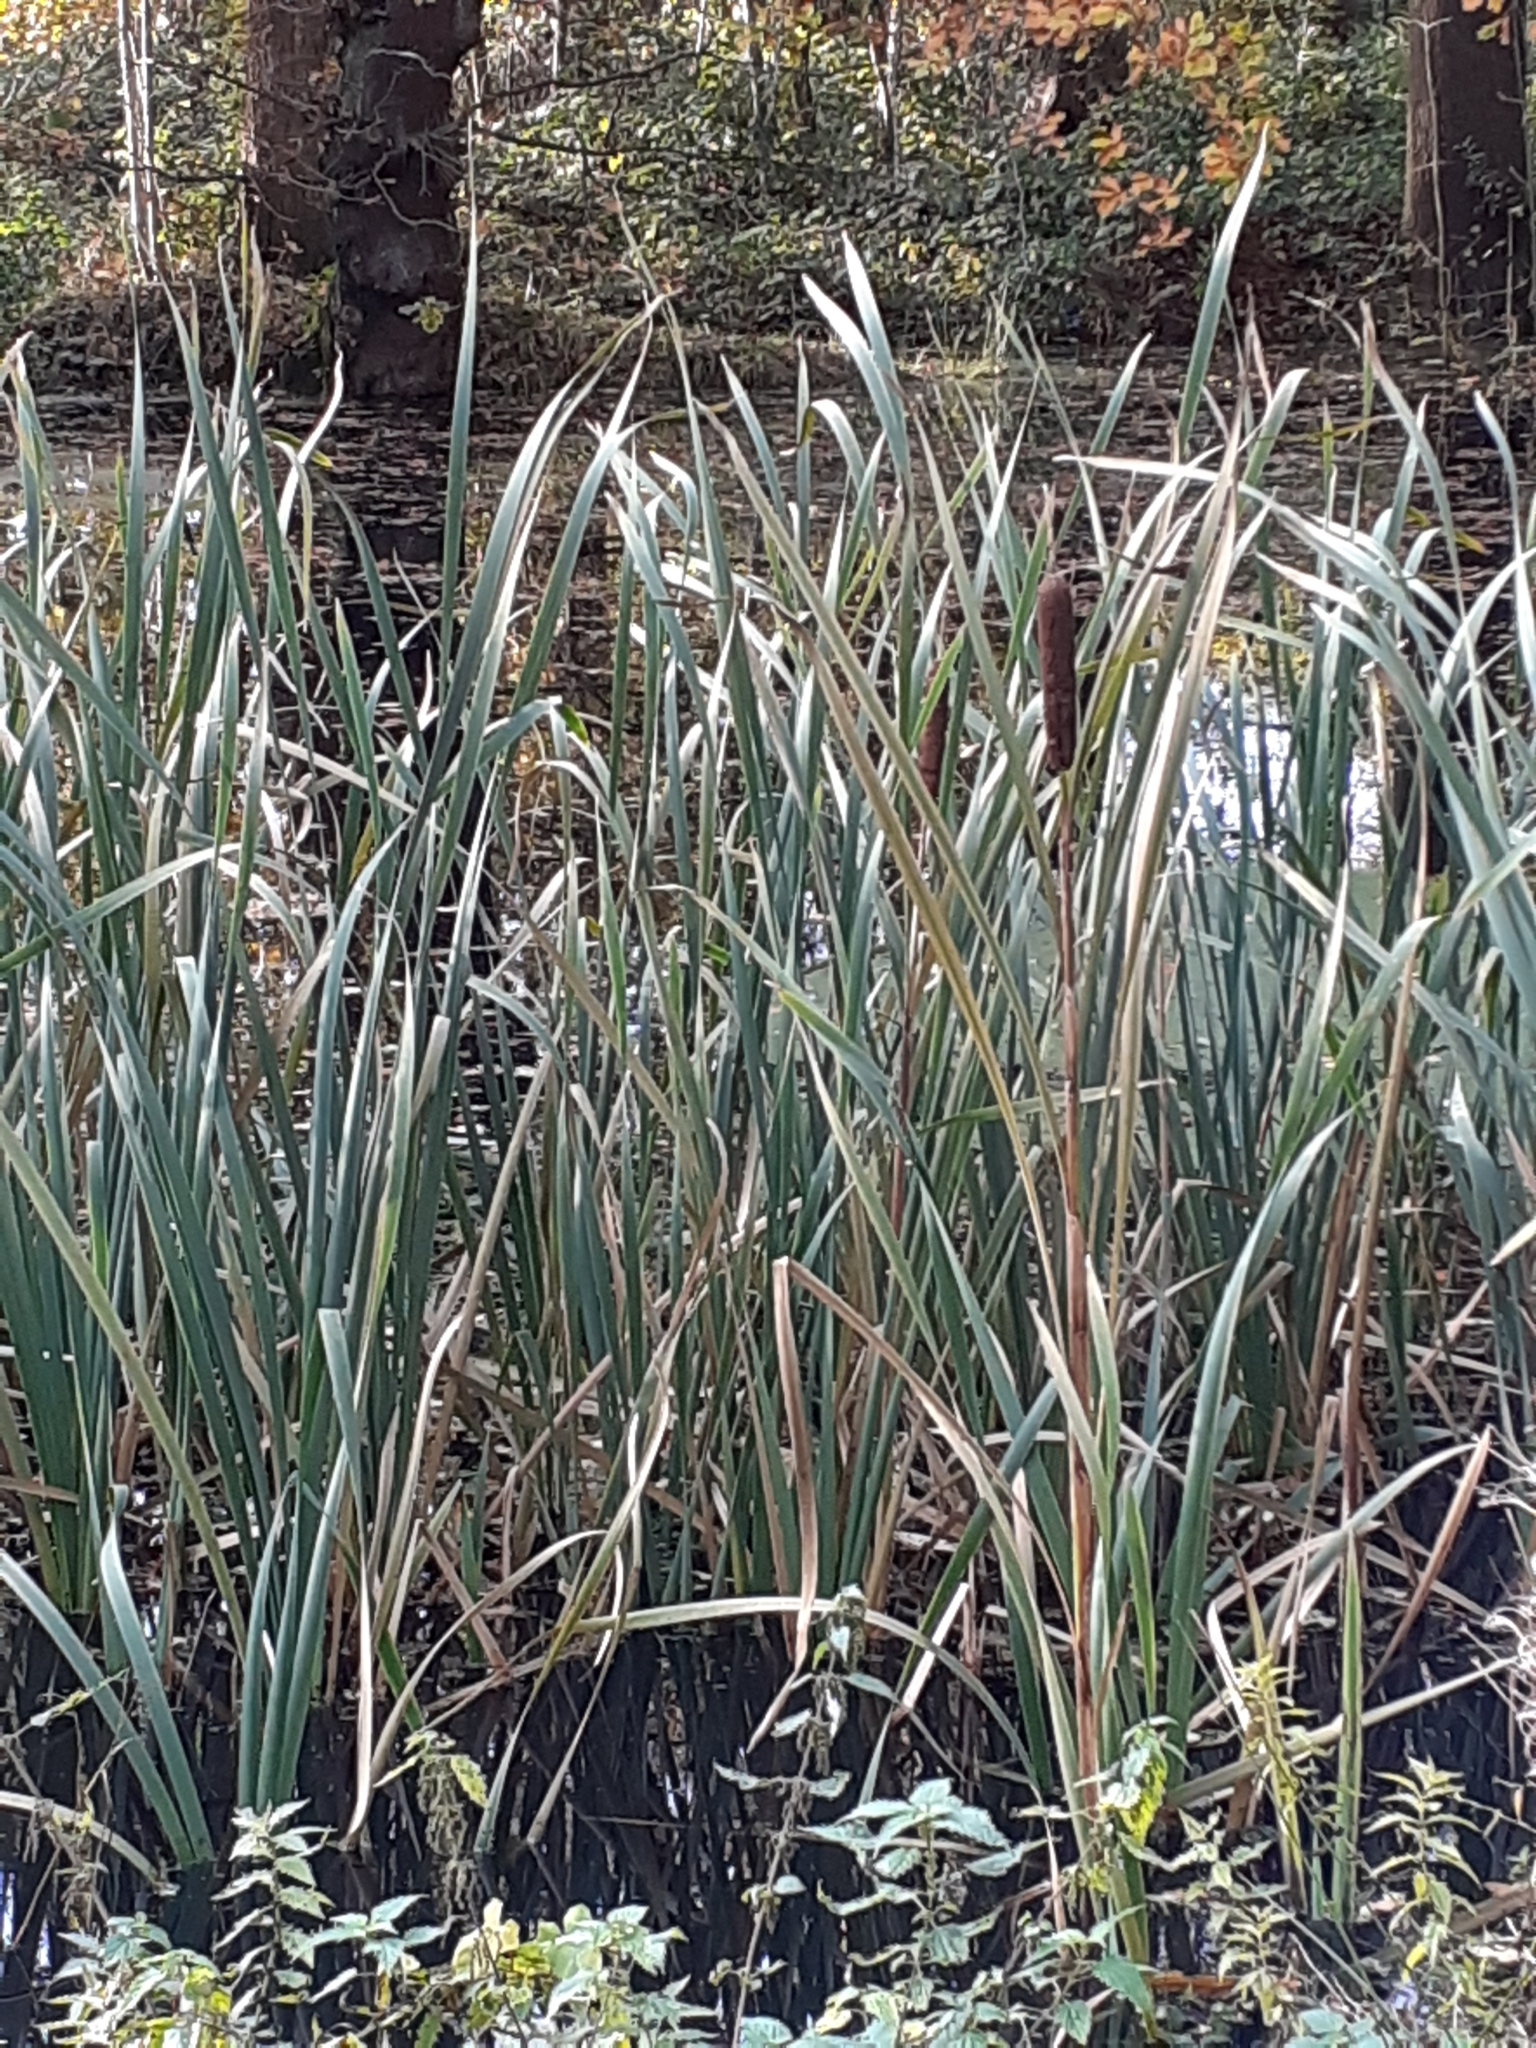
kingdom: Plantae
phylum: Tracheophyta
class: Liliopsida
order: Poales
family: Typhaceae
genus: Typha
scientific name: Typha latifolia
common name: Broadleaf cattail
